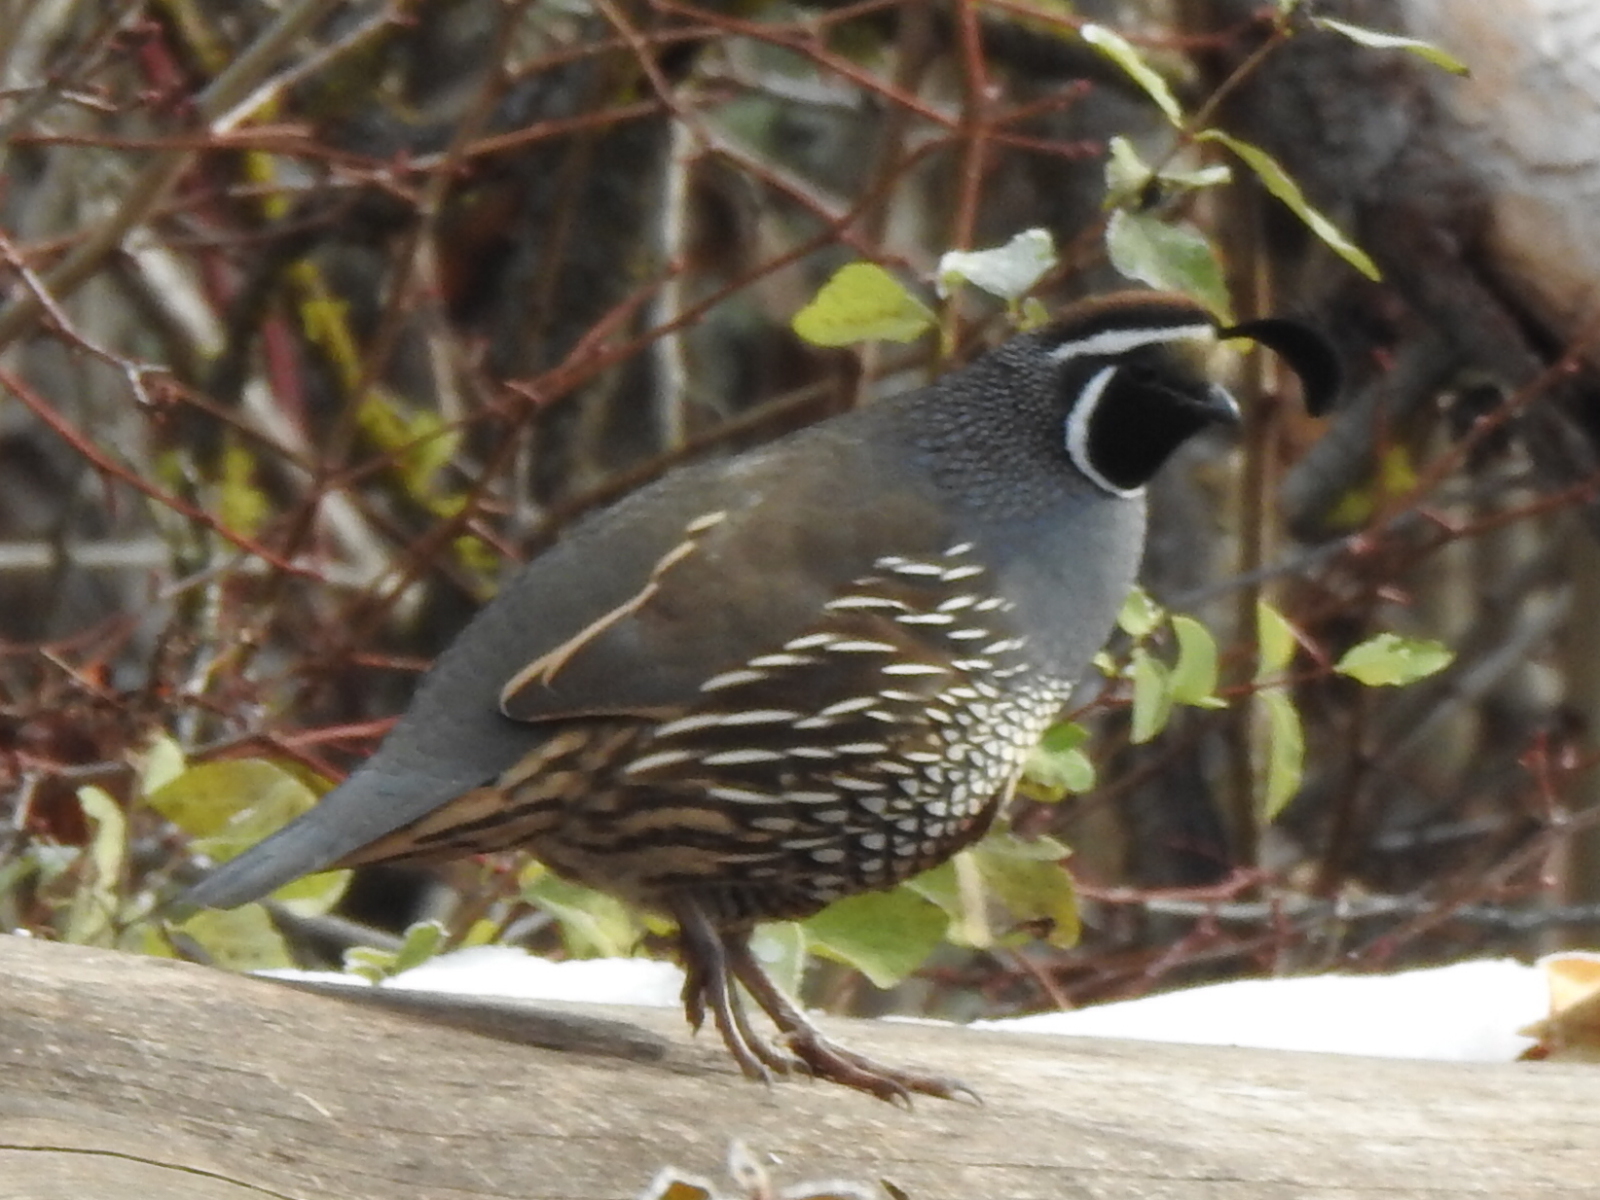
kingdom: Animalia
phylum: Chordata
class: Aves
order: Galliformes
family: Odontophoridae
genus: Callipepla
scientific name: Callipepla californica
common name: California quail
